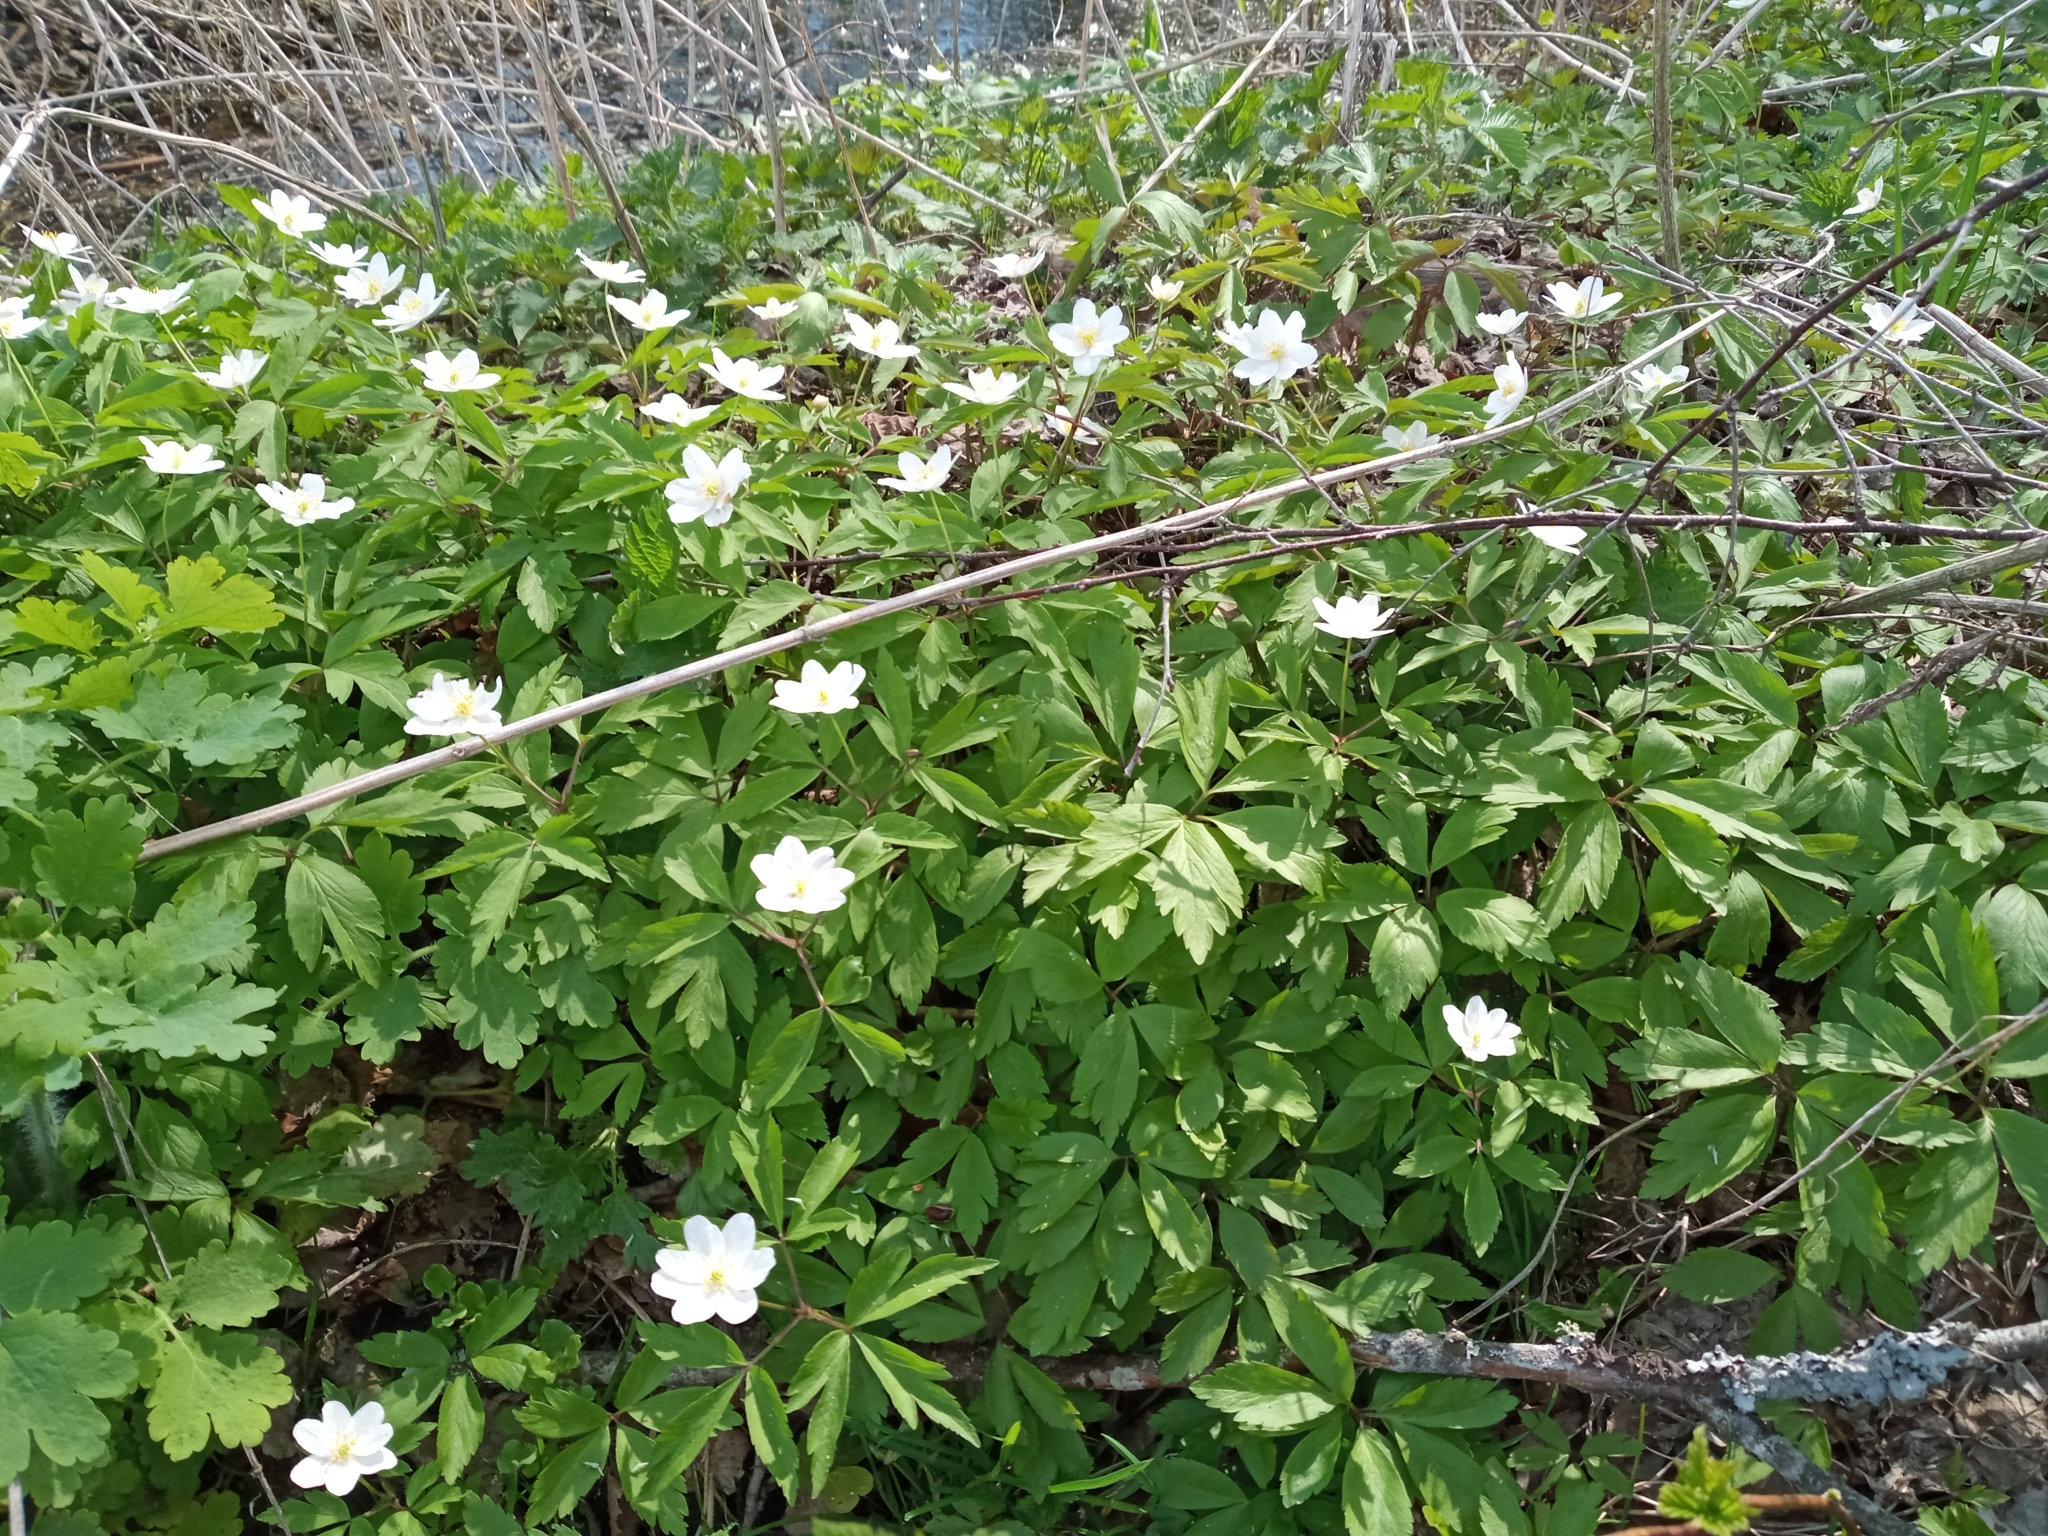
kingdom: Plantae
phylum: Tracheophyta
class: Magnoliopsida
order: Ranunculales
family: Ranunculaceae
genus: Anemone
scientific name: Anemone nemorosa
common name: Wood anemone
